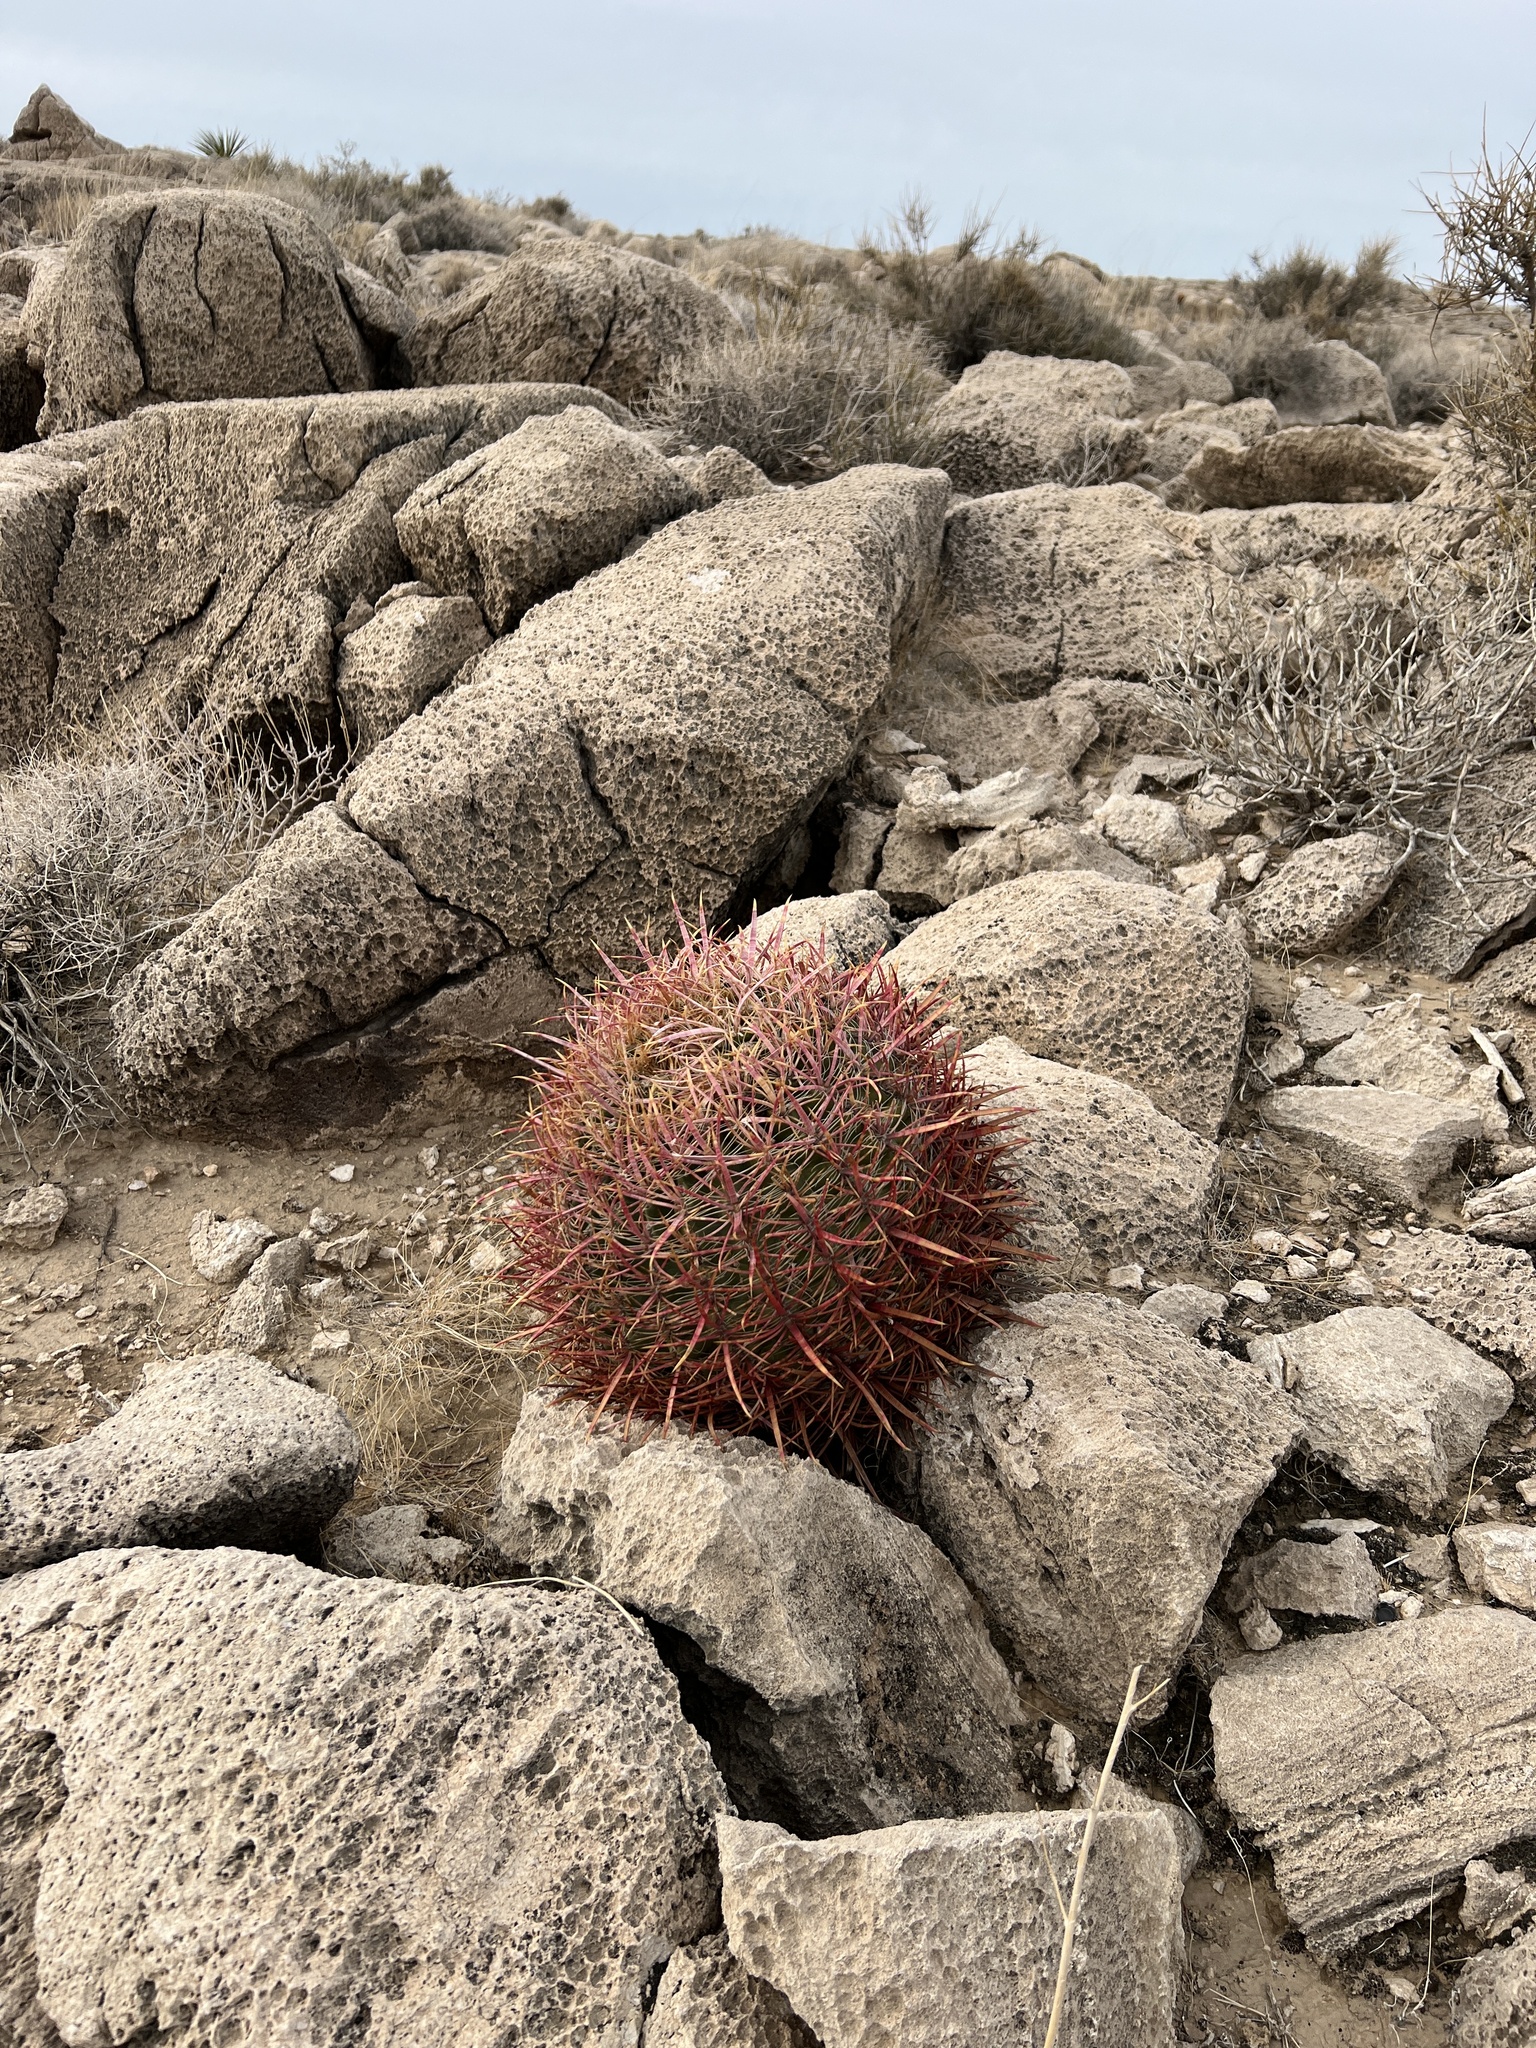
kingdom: Plantae
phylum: Tracheophyta
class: Magnoliopsida
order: Caryophyllales
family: Cactaceae
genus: Ferocactus
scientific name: Ferocactus cylindraceus
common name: California barrel cactus
